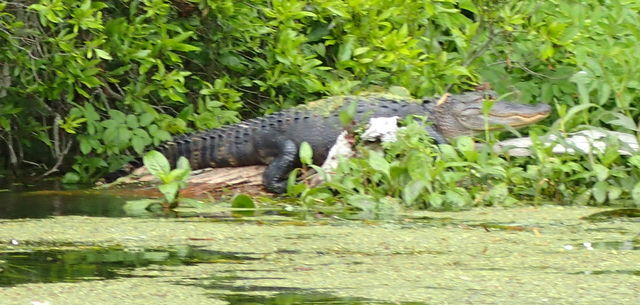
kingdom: Animalia
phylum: Chordata
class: Crocodylia
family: Alligatoridae
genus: Alligator
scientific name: Alligator mississippiensis
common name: American alligator
